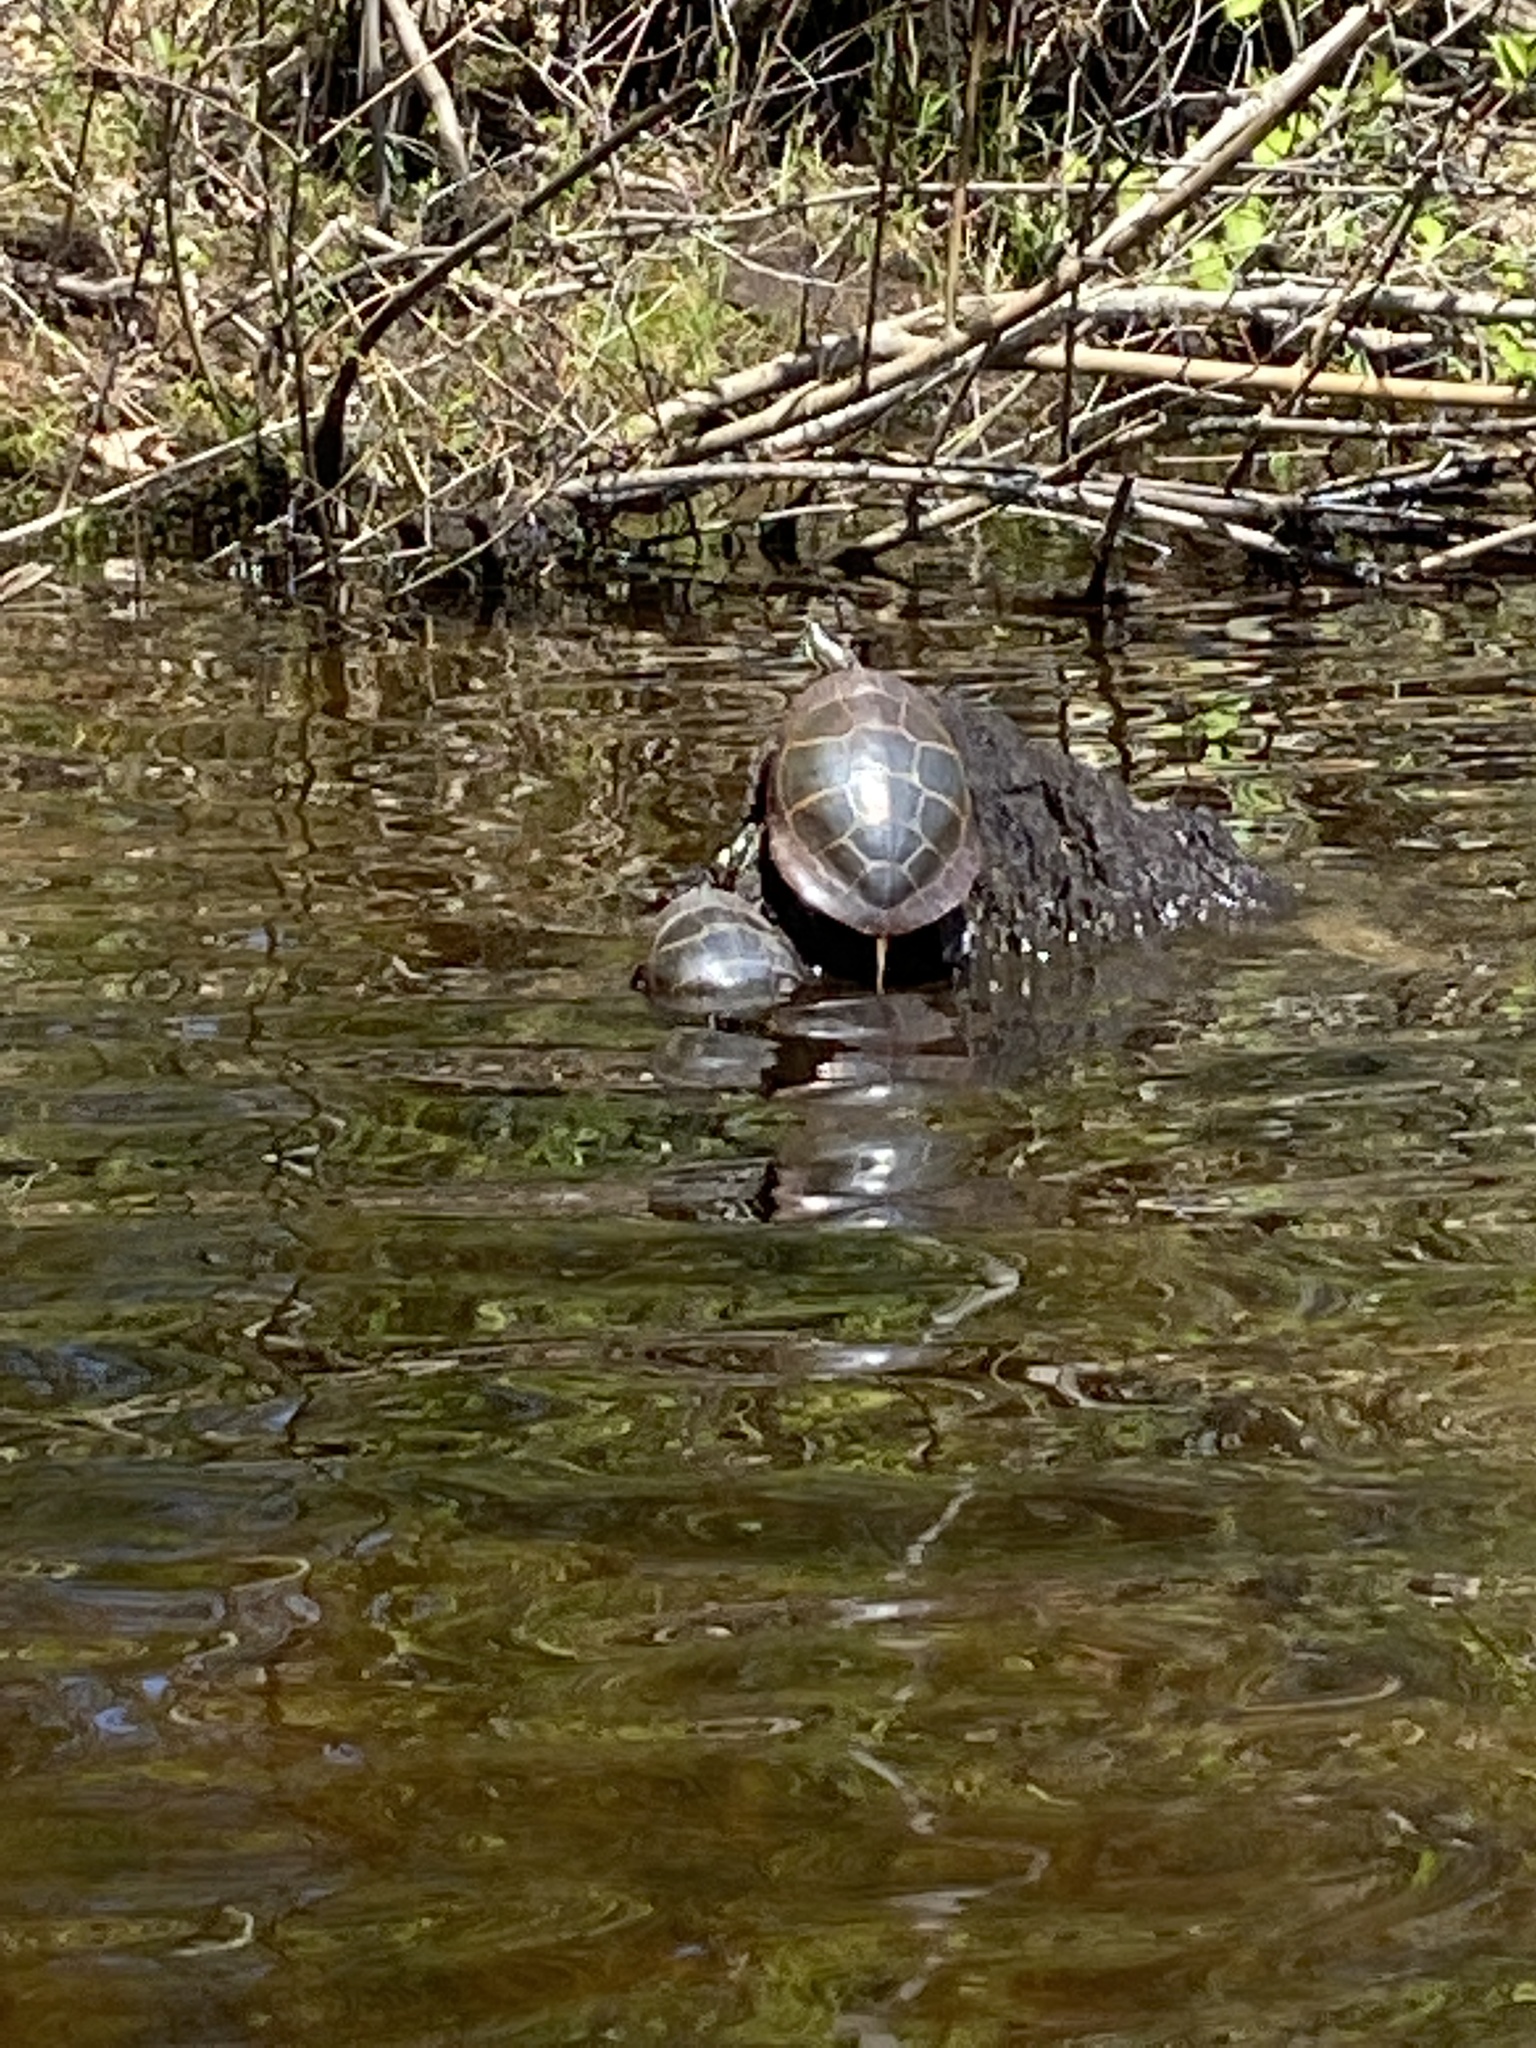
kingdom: Animalia
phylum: Chordata
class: Testudines
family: Emydidae
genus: Chrysemys
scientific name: Chrysemys picta
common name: Painted turtle
